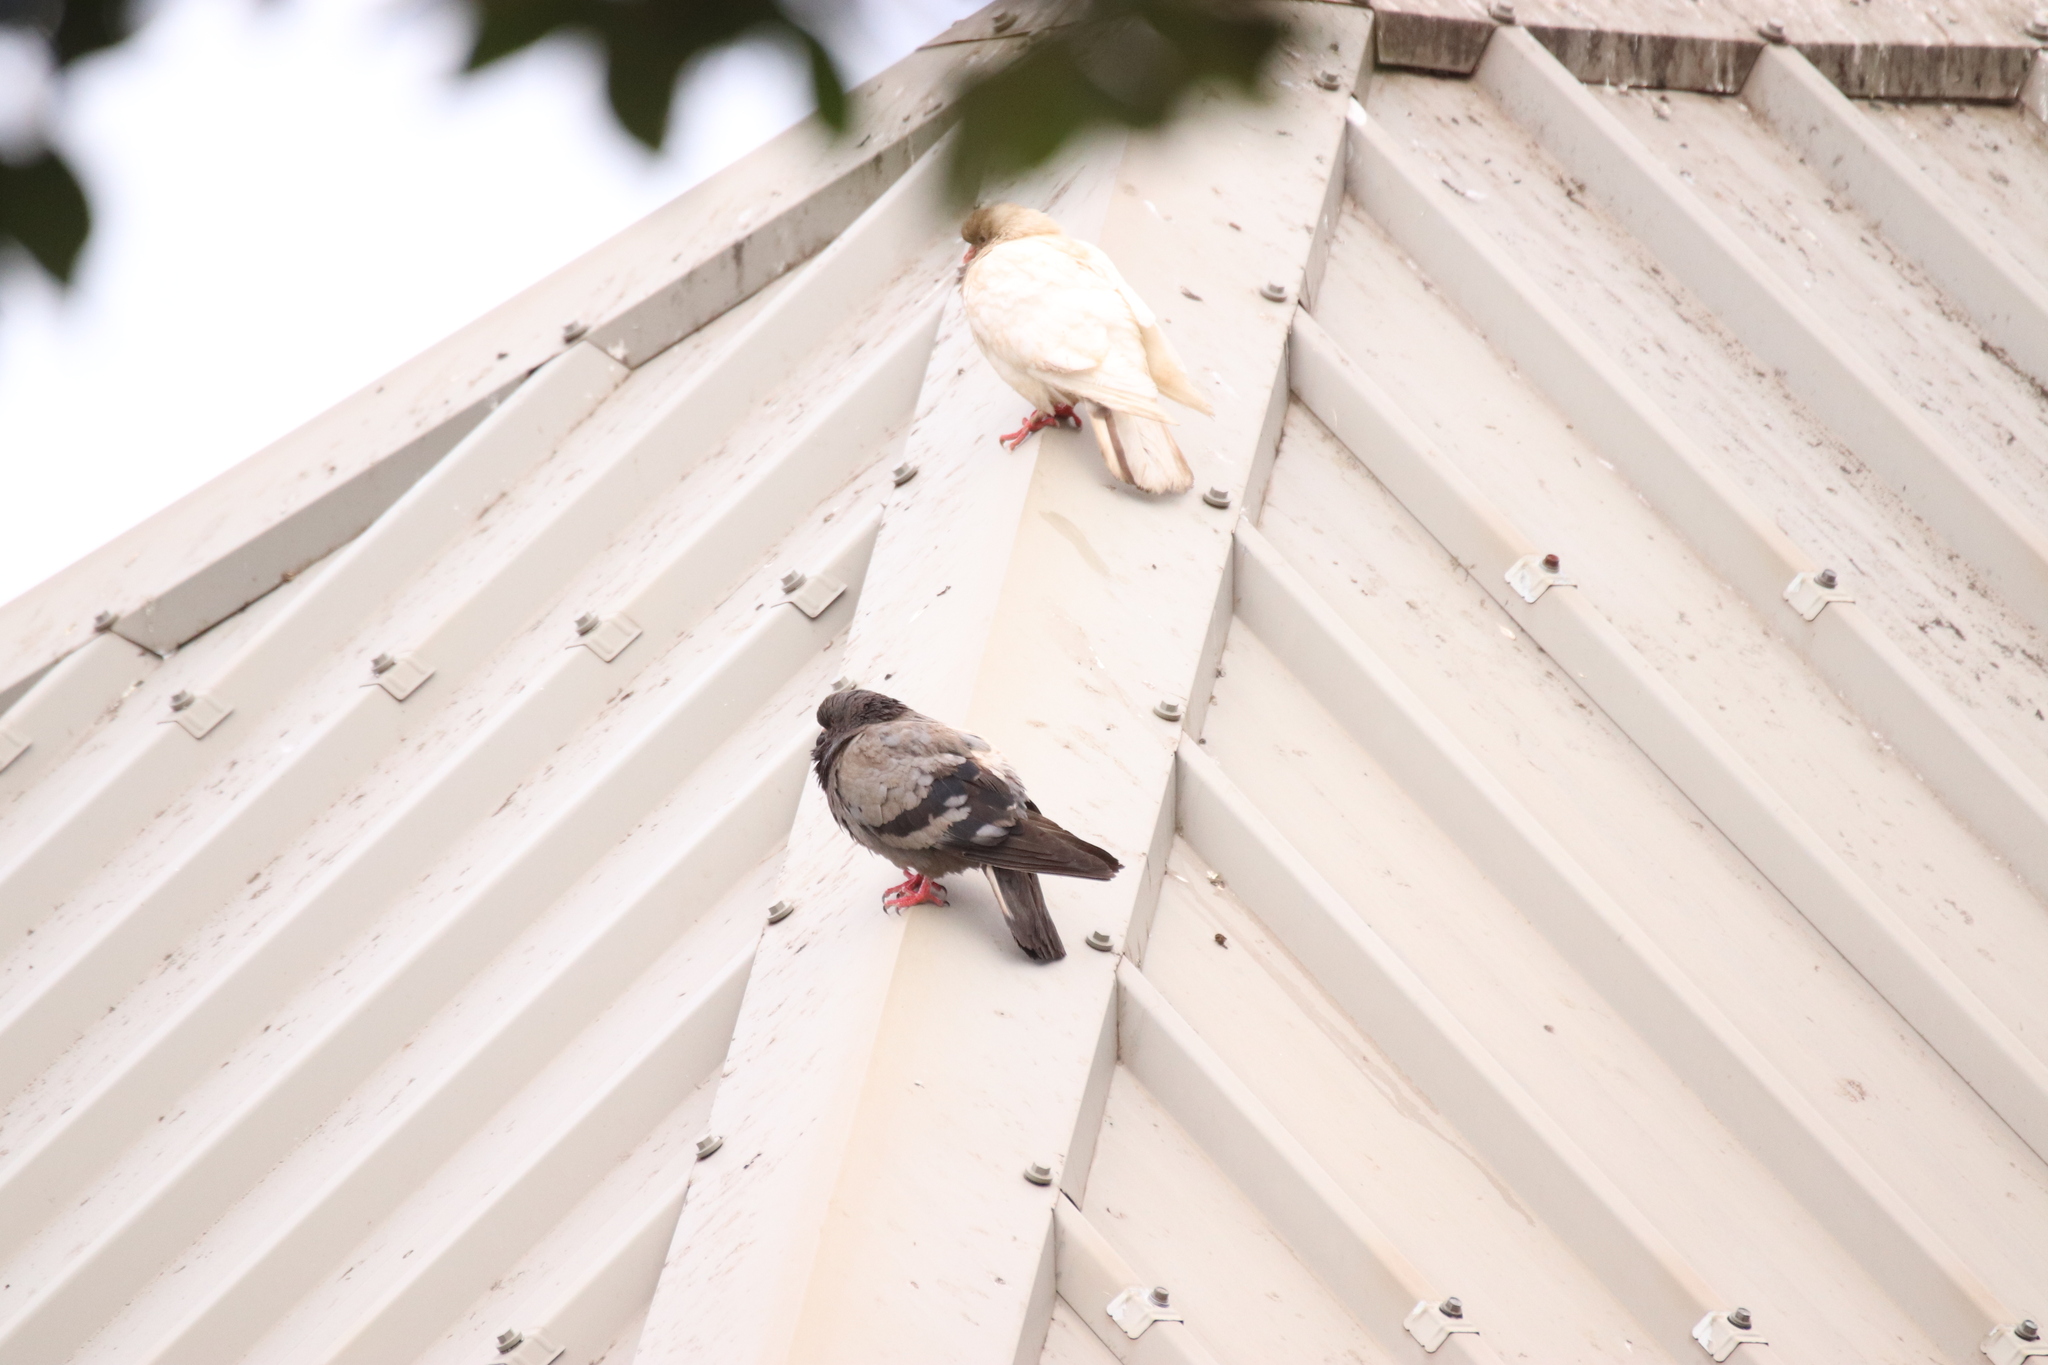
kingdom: Animalia
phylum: Chordata
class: Aves
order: Columbiformes
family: Columbidae
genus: Columba
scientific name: Columba livia
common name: Rock pigeon
